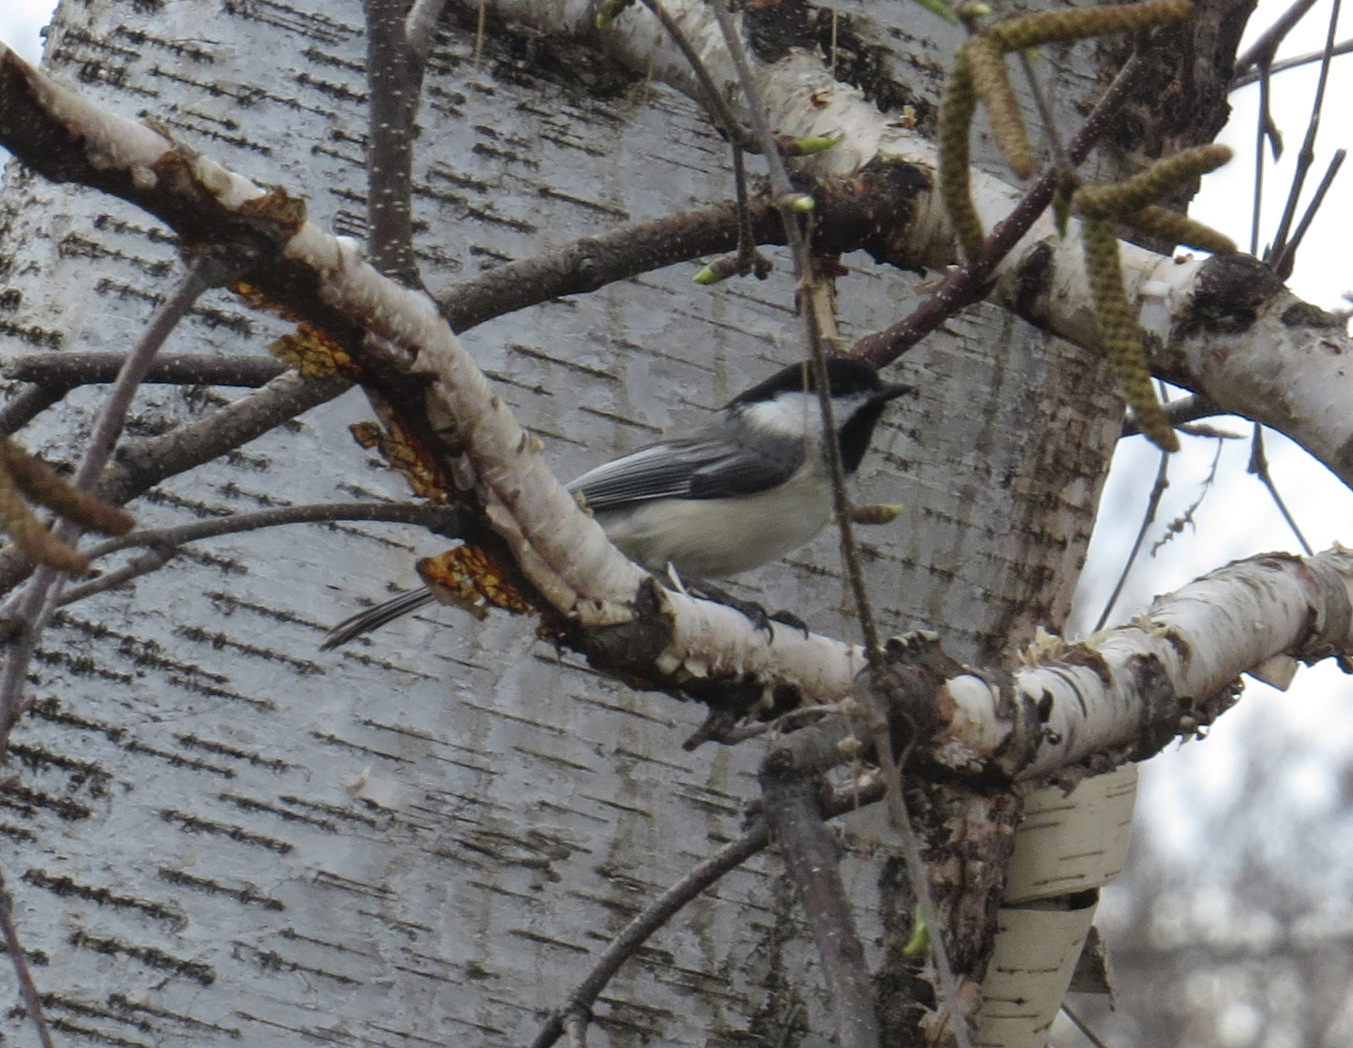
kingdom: Animalia
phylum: Chordata
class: Aves
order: Passeriformes
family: Paridae
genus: Poecile
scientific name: Poecile atricapillus
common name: Black-capped chickadee
